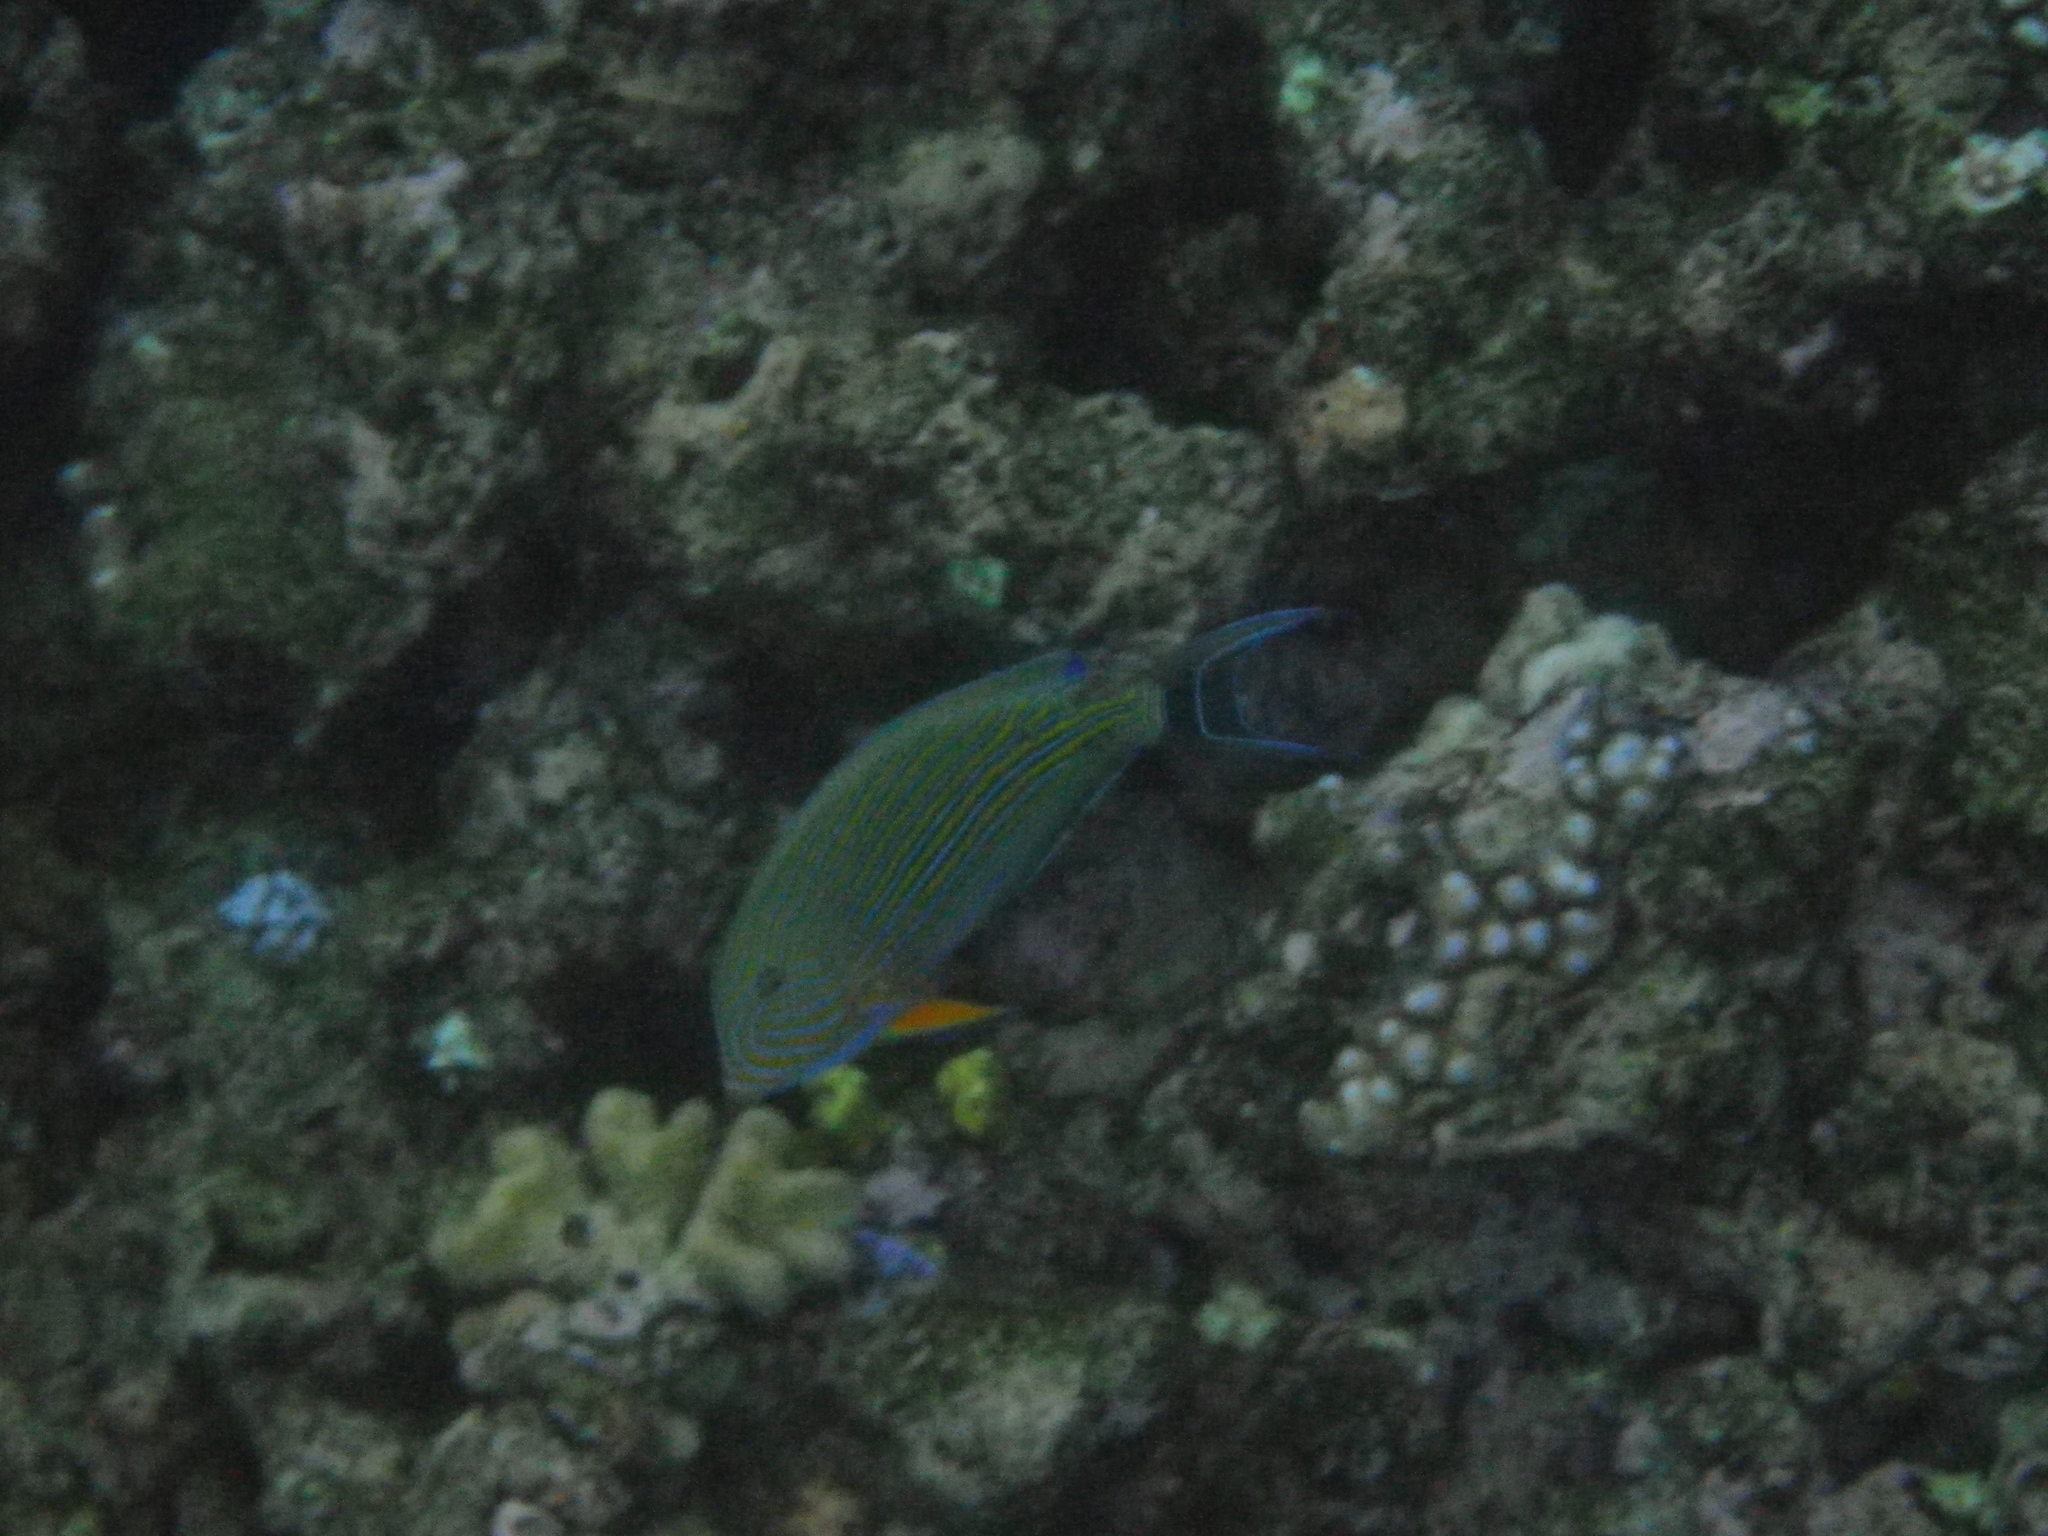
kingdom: Animalia
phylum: Chordata
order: Perciformes
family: Acanthuridae
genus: Acanthurus
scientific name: Acanthurus lineatus
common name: Striped surgeonfish
